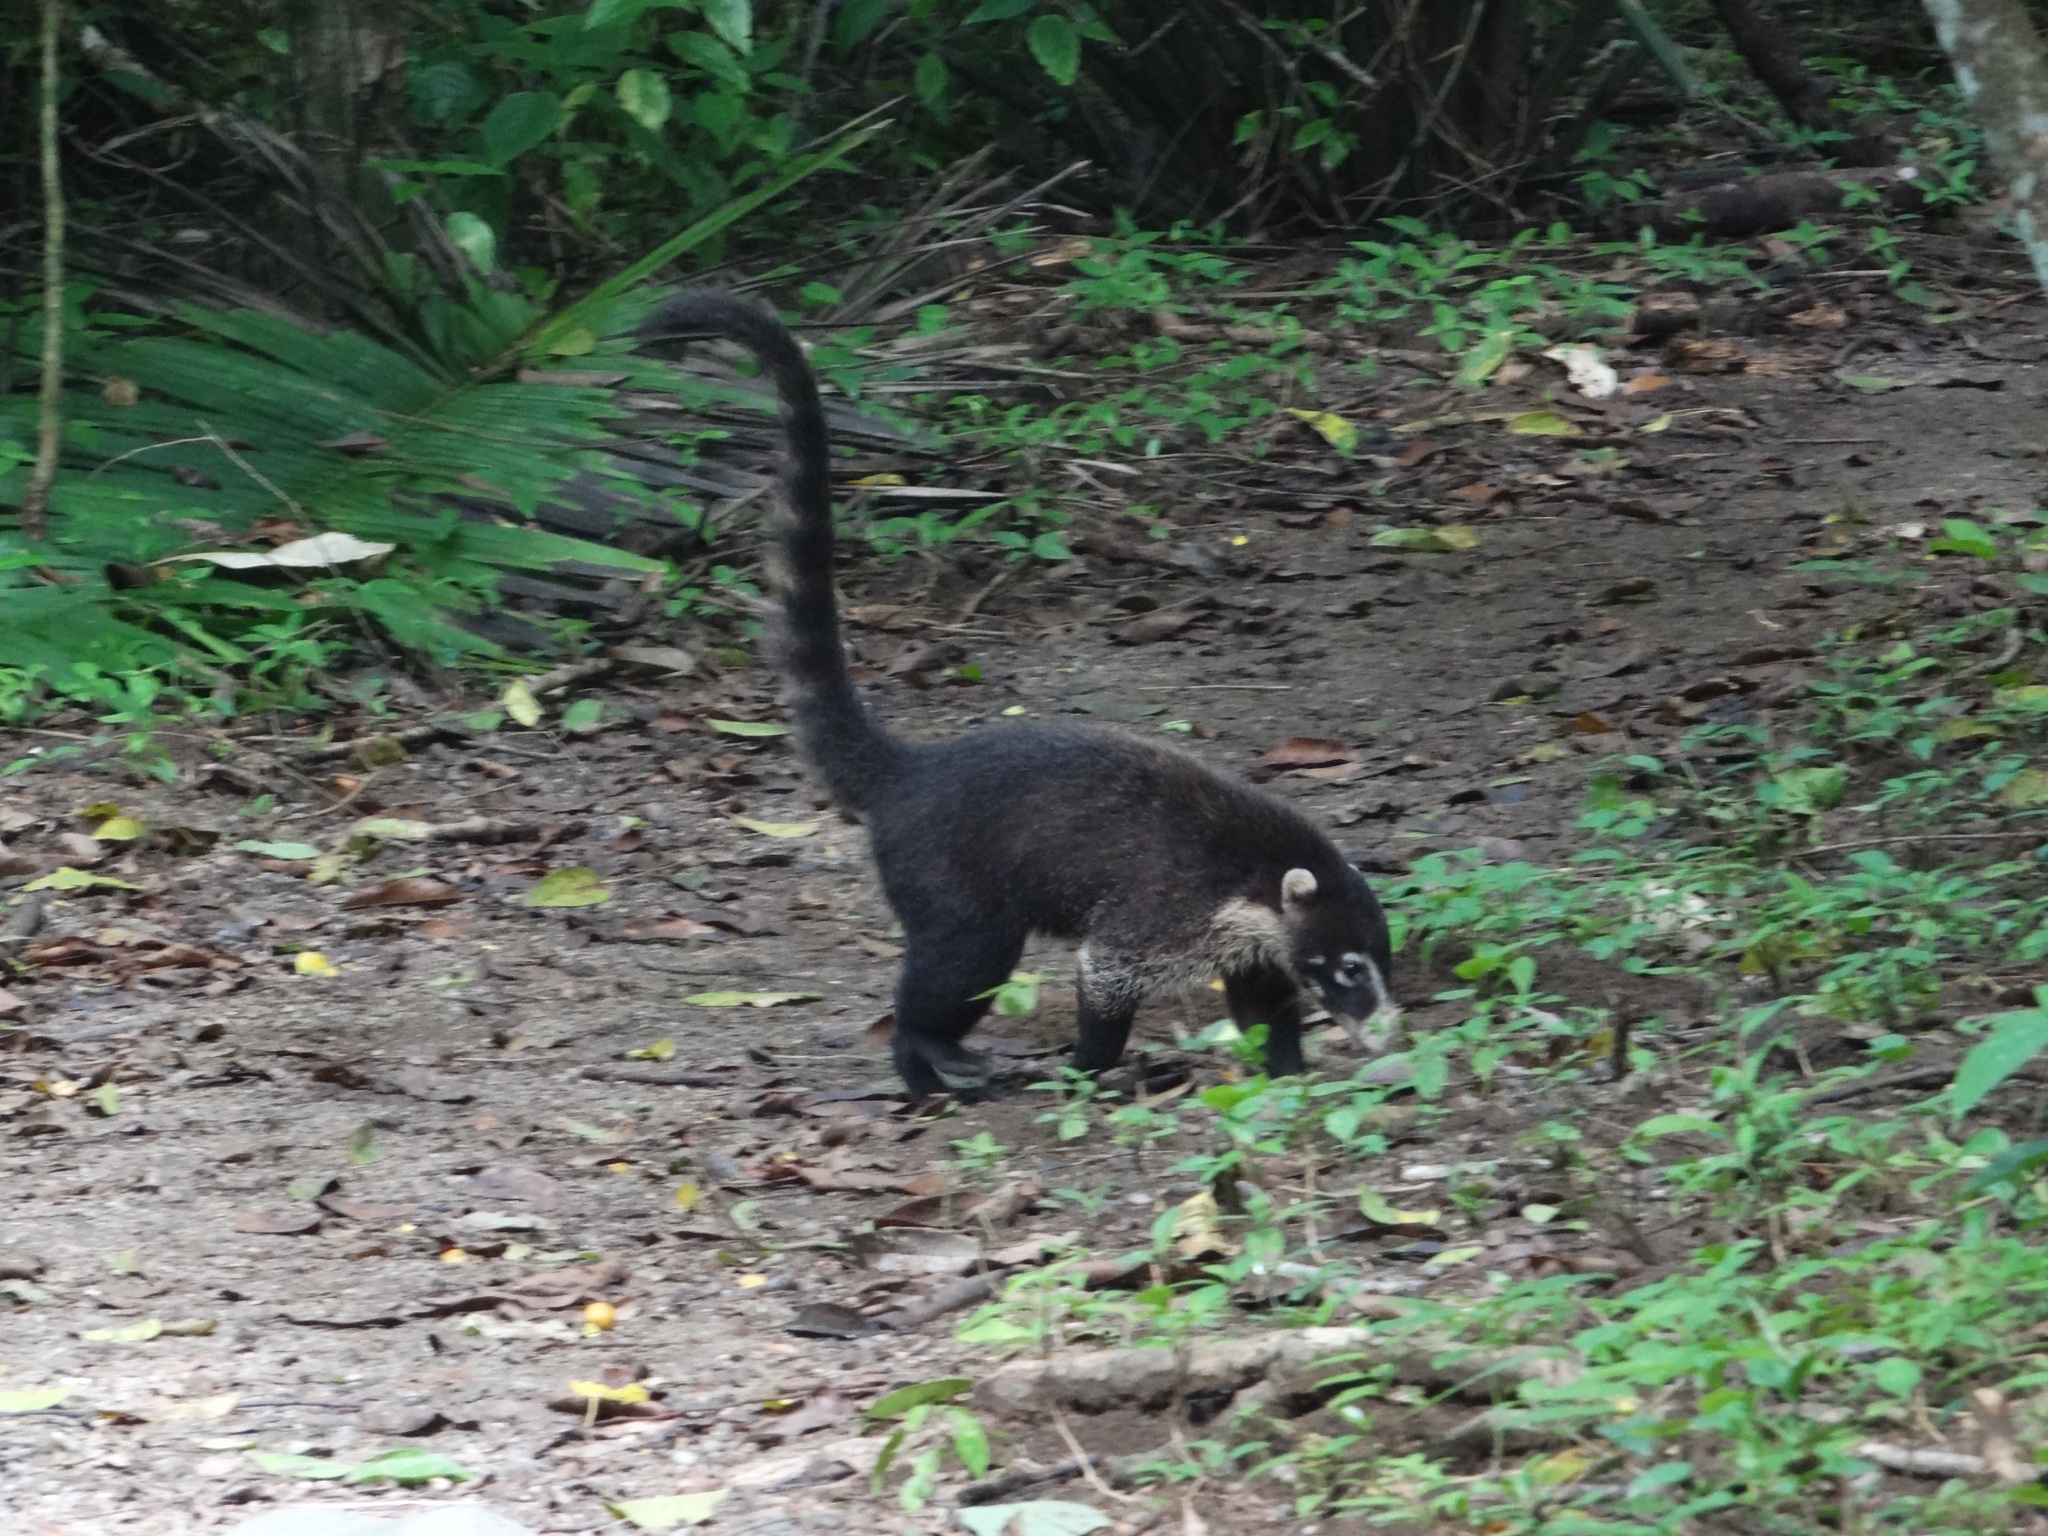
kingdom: Animalia
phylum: Chordata
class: Mammalia
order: Carnivora
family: Procyonidae
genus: Nasua
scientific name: Nasua narica
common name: White-nosed coati
